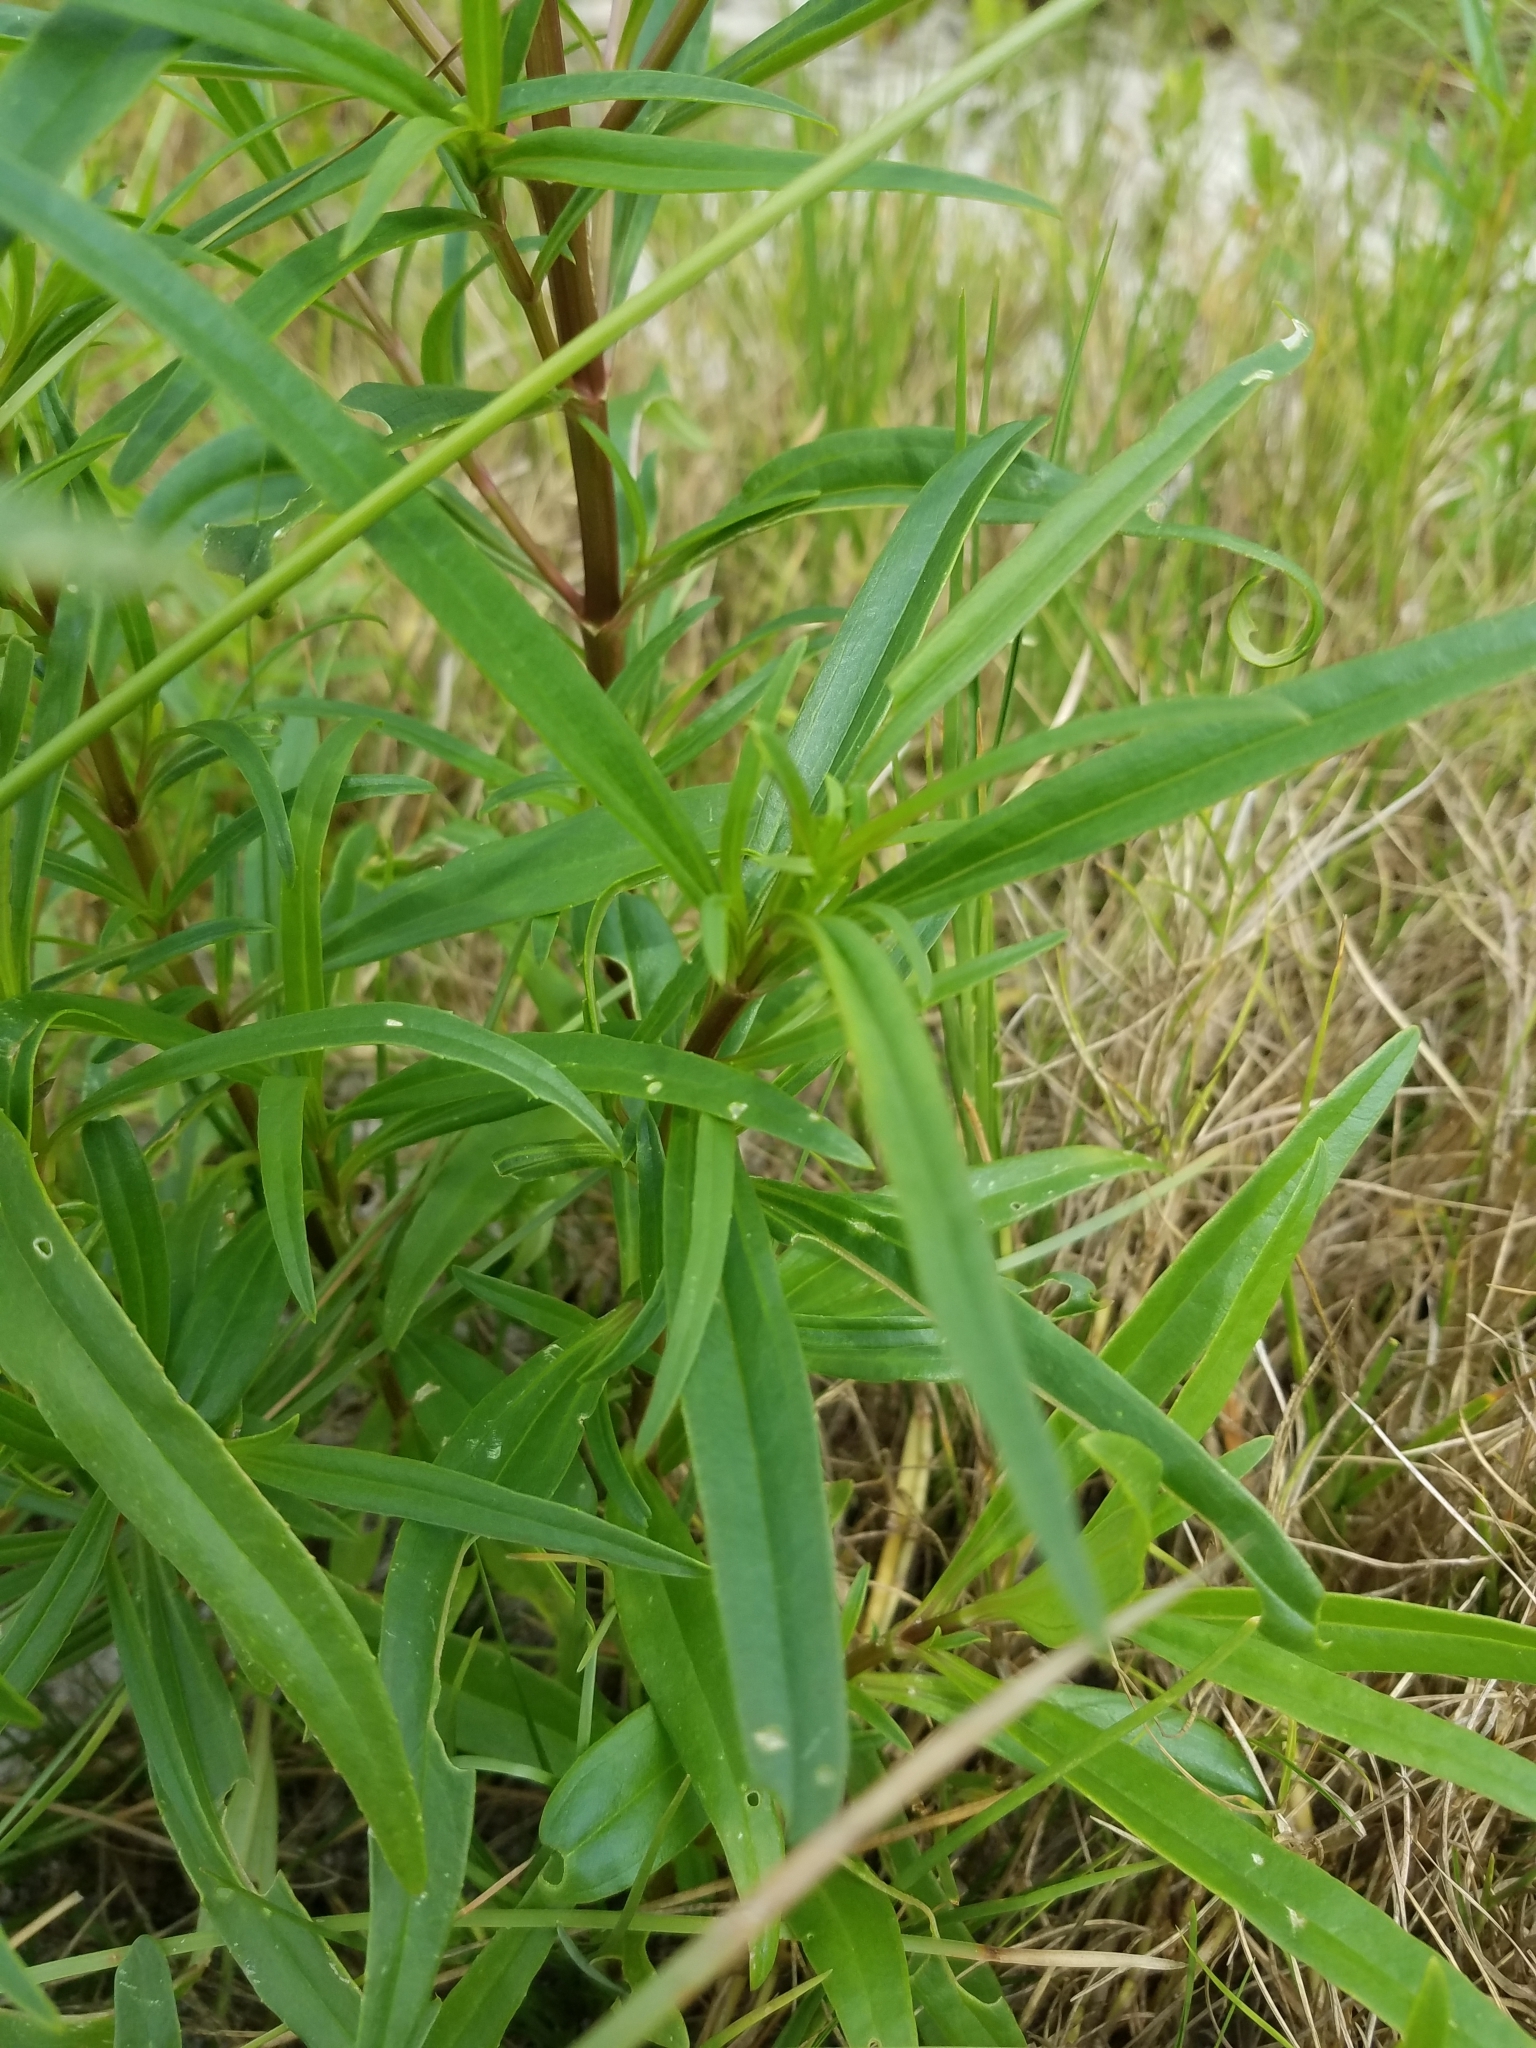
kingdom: Plantae
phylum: Tracheophyta
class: Magnoliopsida
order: Asterales
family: Asteraceae
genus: Flaveria
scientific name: Flaveria linearis
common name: Yellowtop
